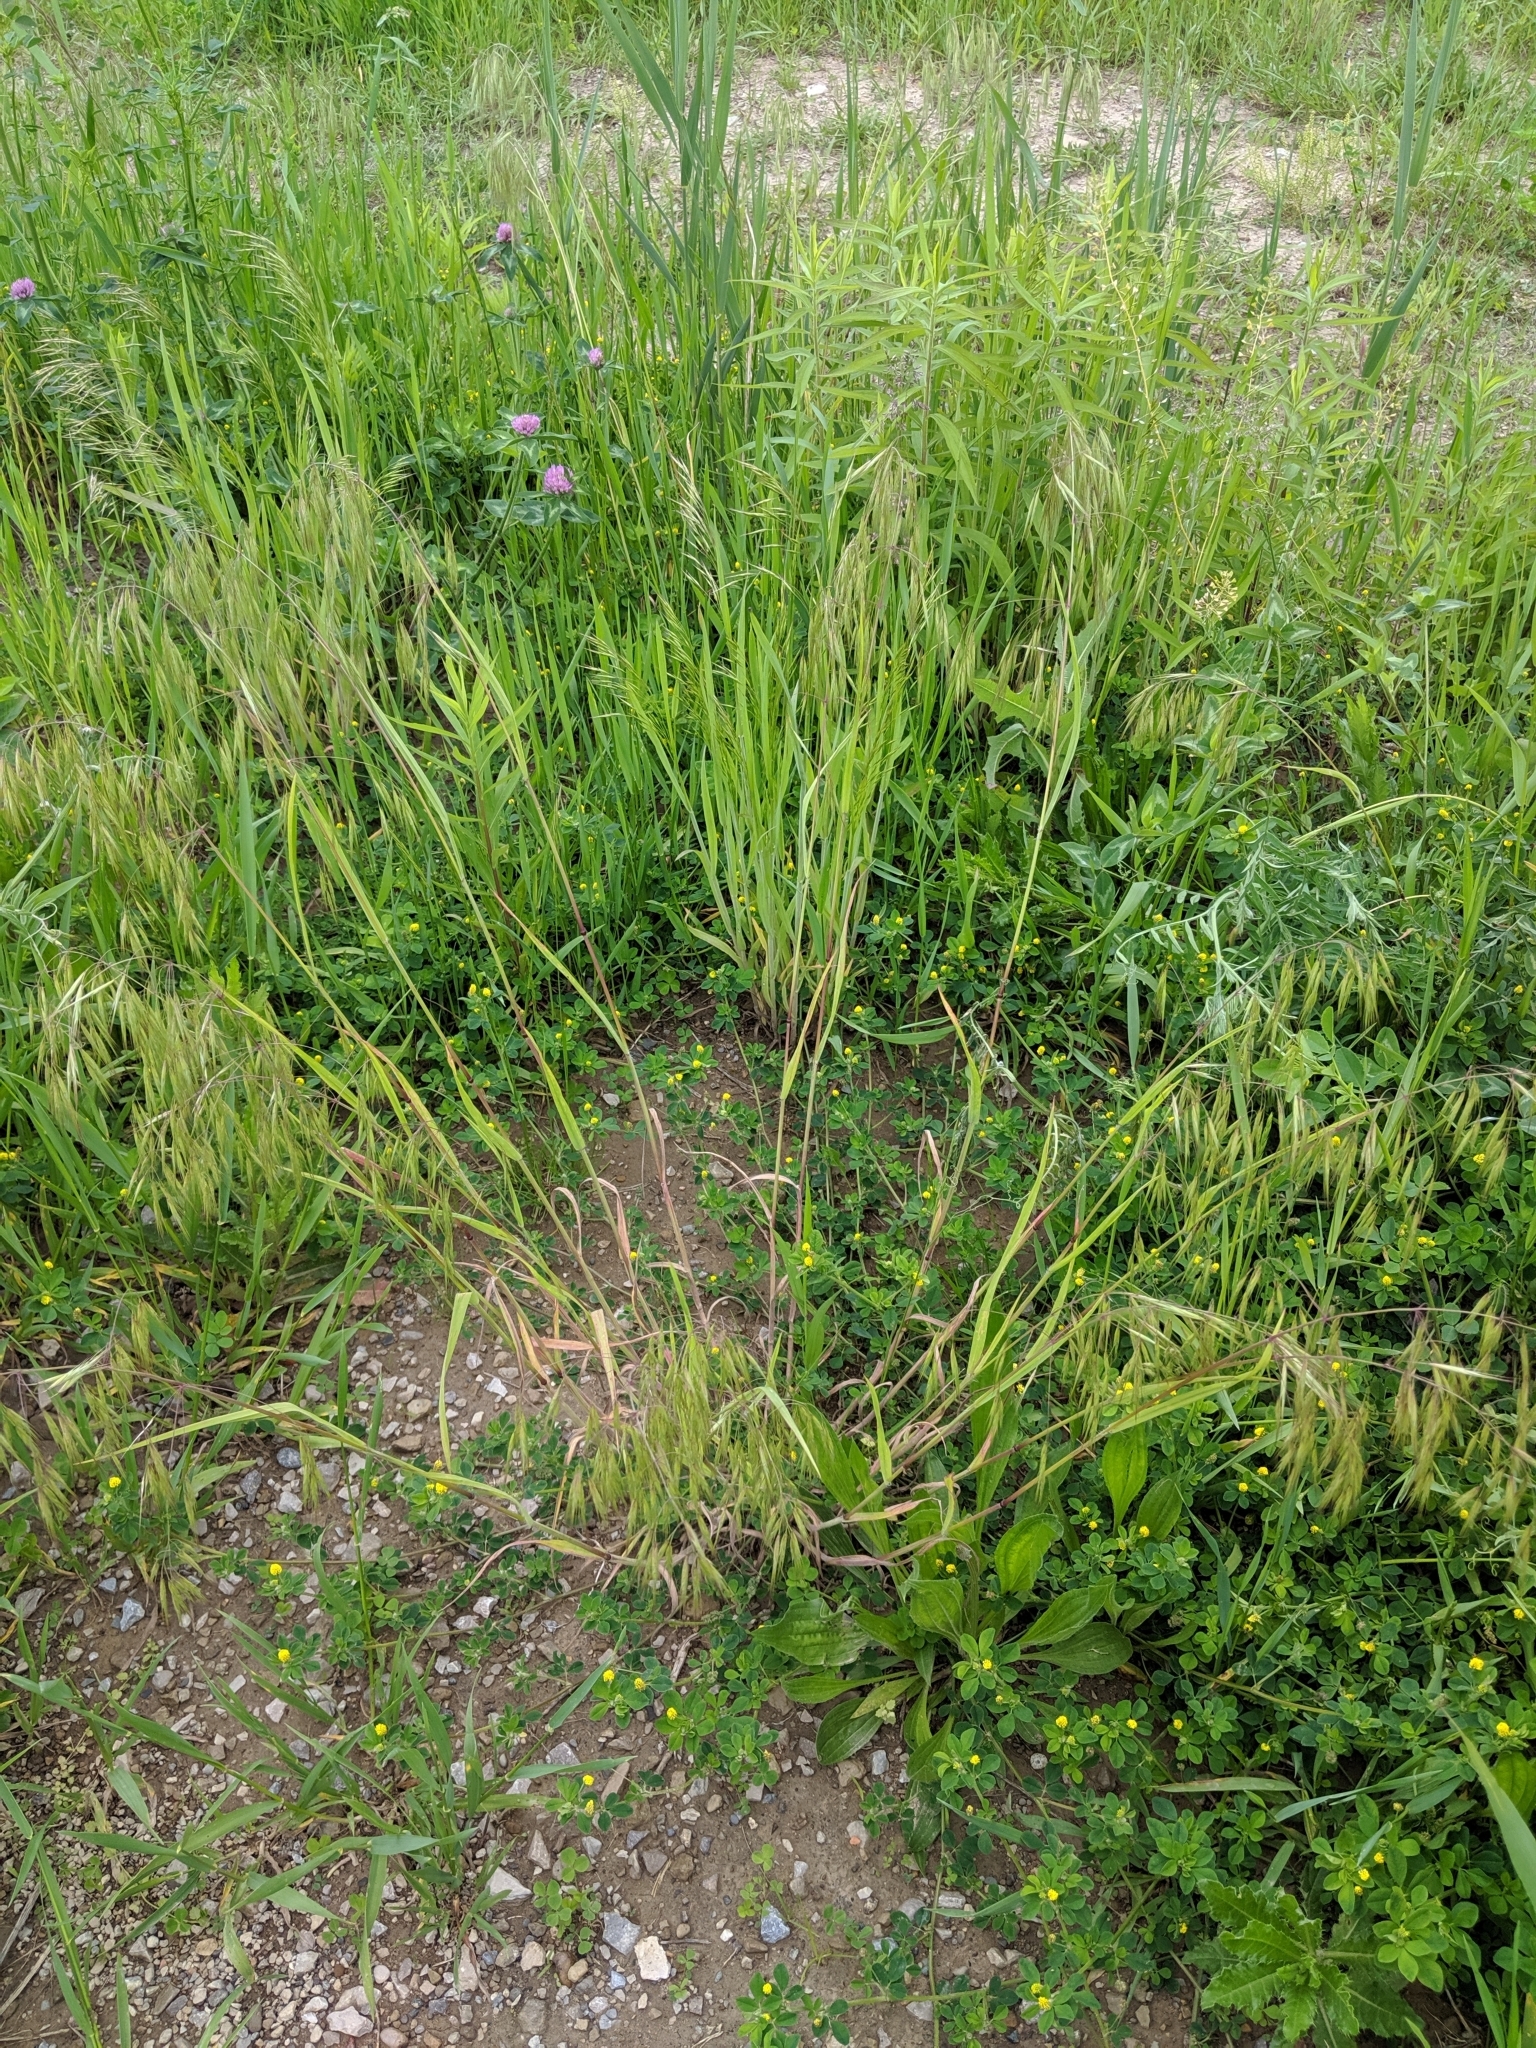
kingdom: Plantae
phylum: Tracheophyta
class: Liliopsida
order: Poales
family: Poaceae
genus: Bromus
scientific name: Bromus tectorum
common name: Cheatgrass
